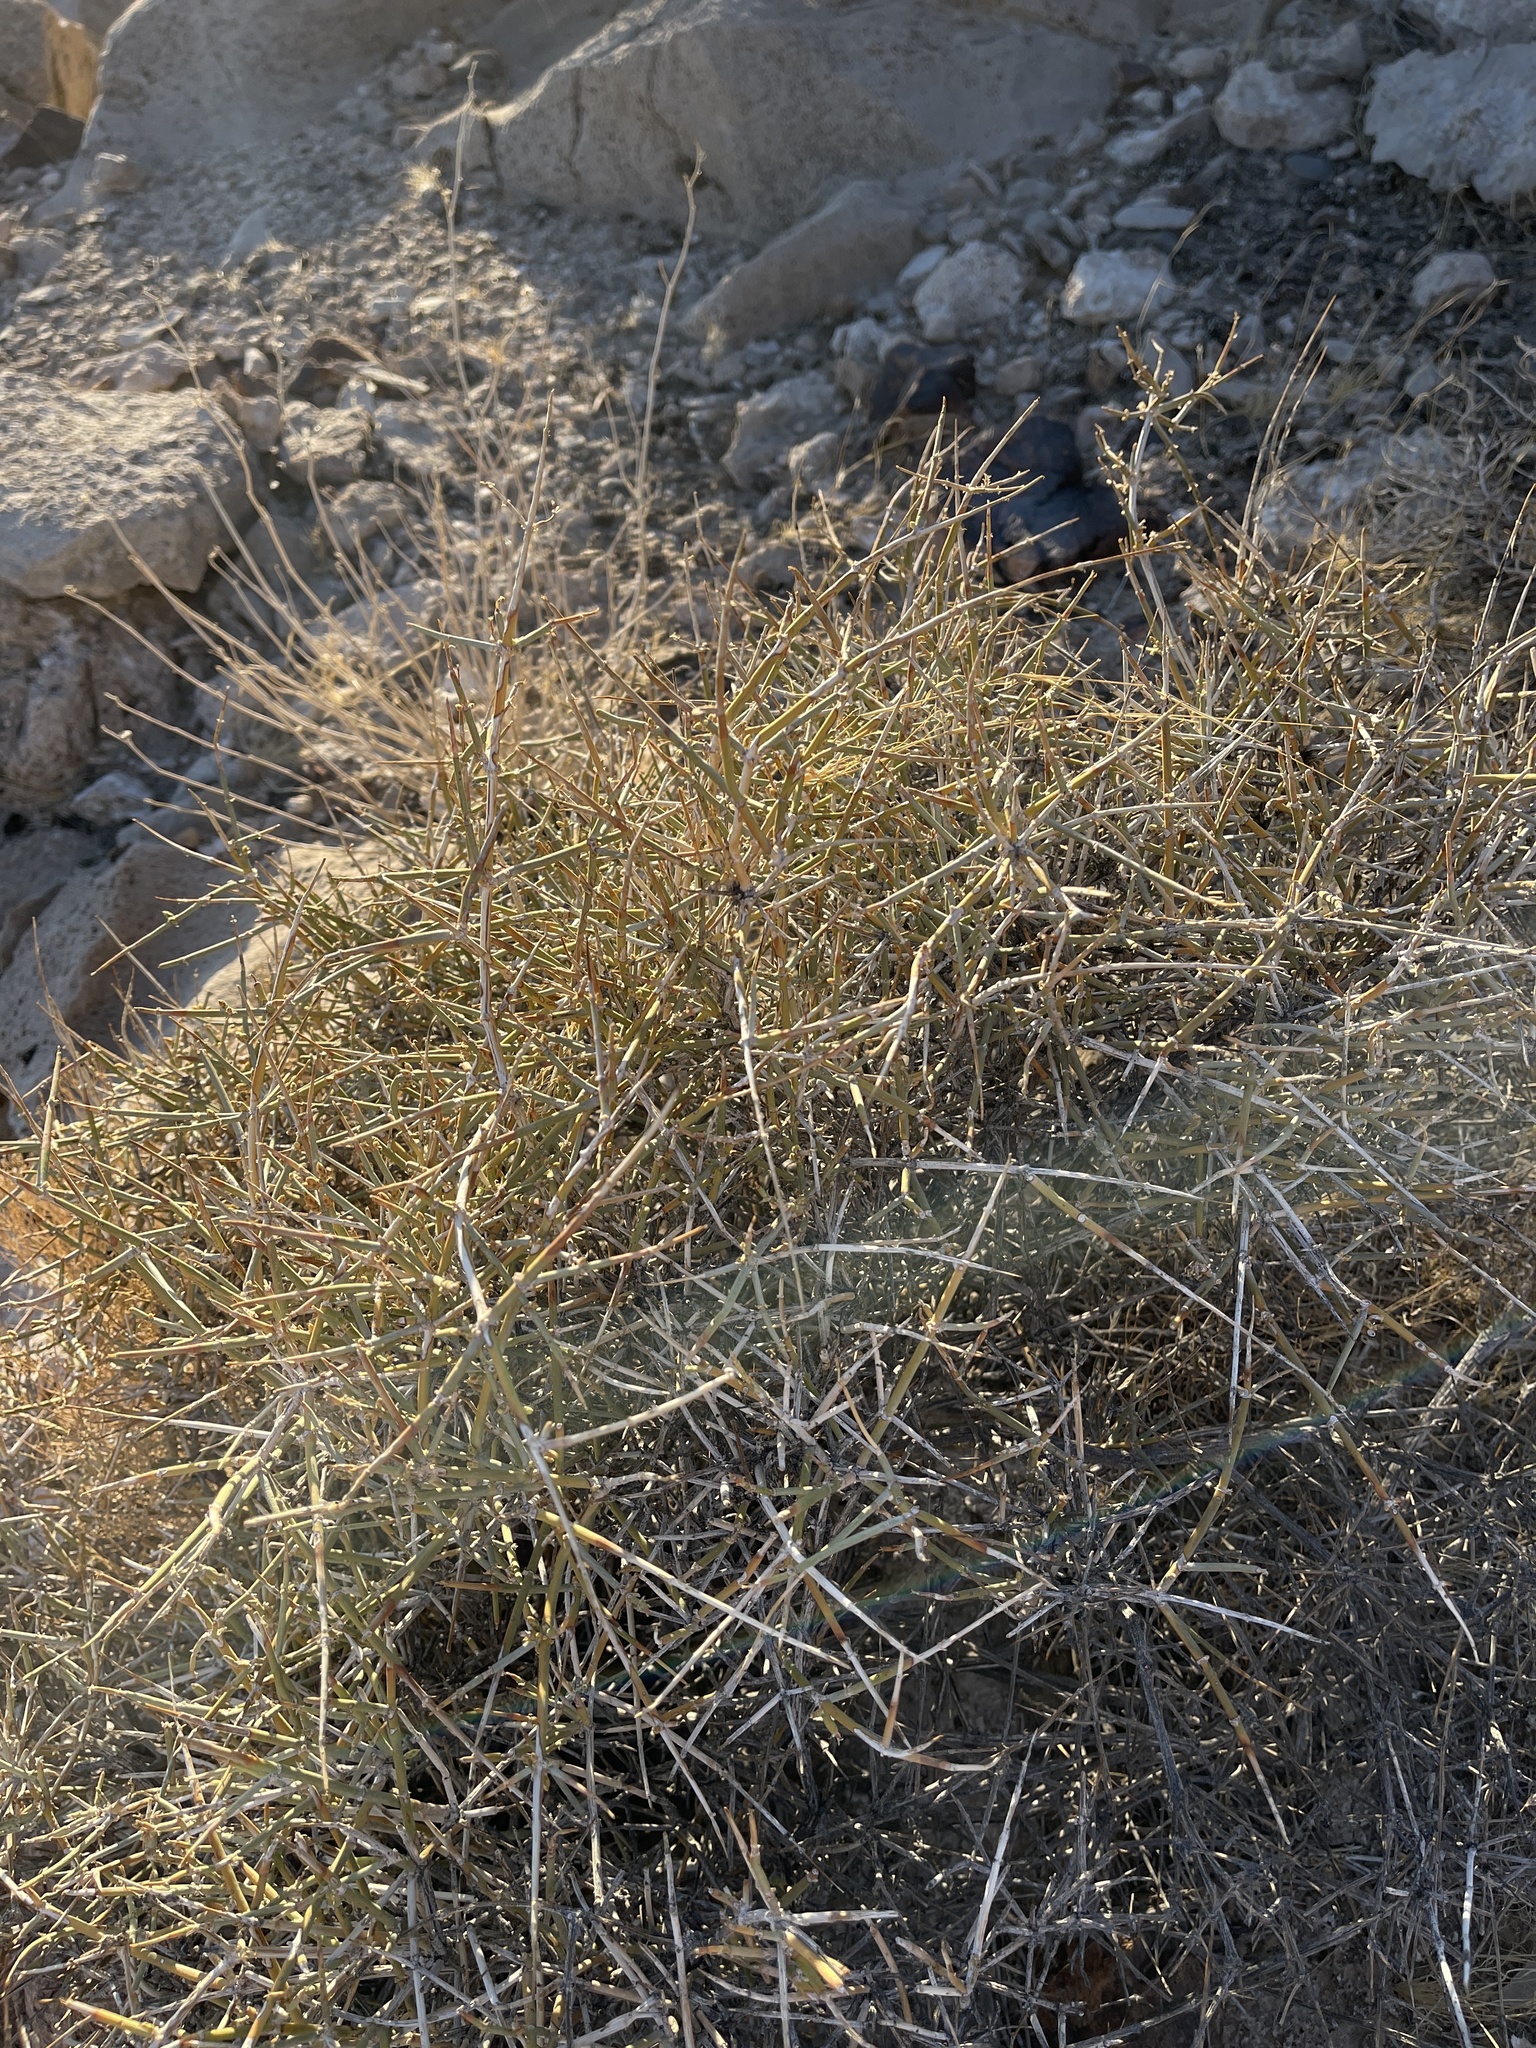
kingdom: Plantae
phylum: Tracheophyta
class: Gnetopsida
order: Ephedrales
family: Ephedraceae
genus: Ephedra
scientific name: Ephedra nevadensis
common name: Gray ephedra
